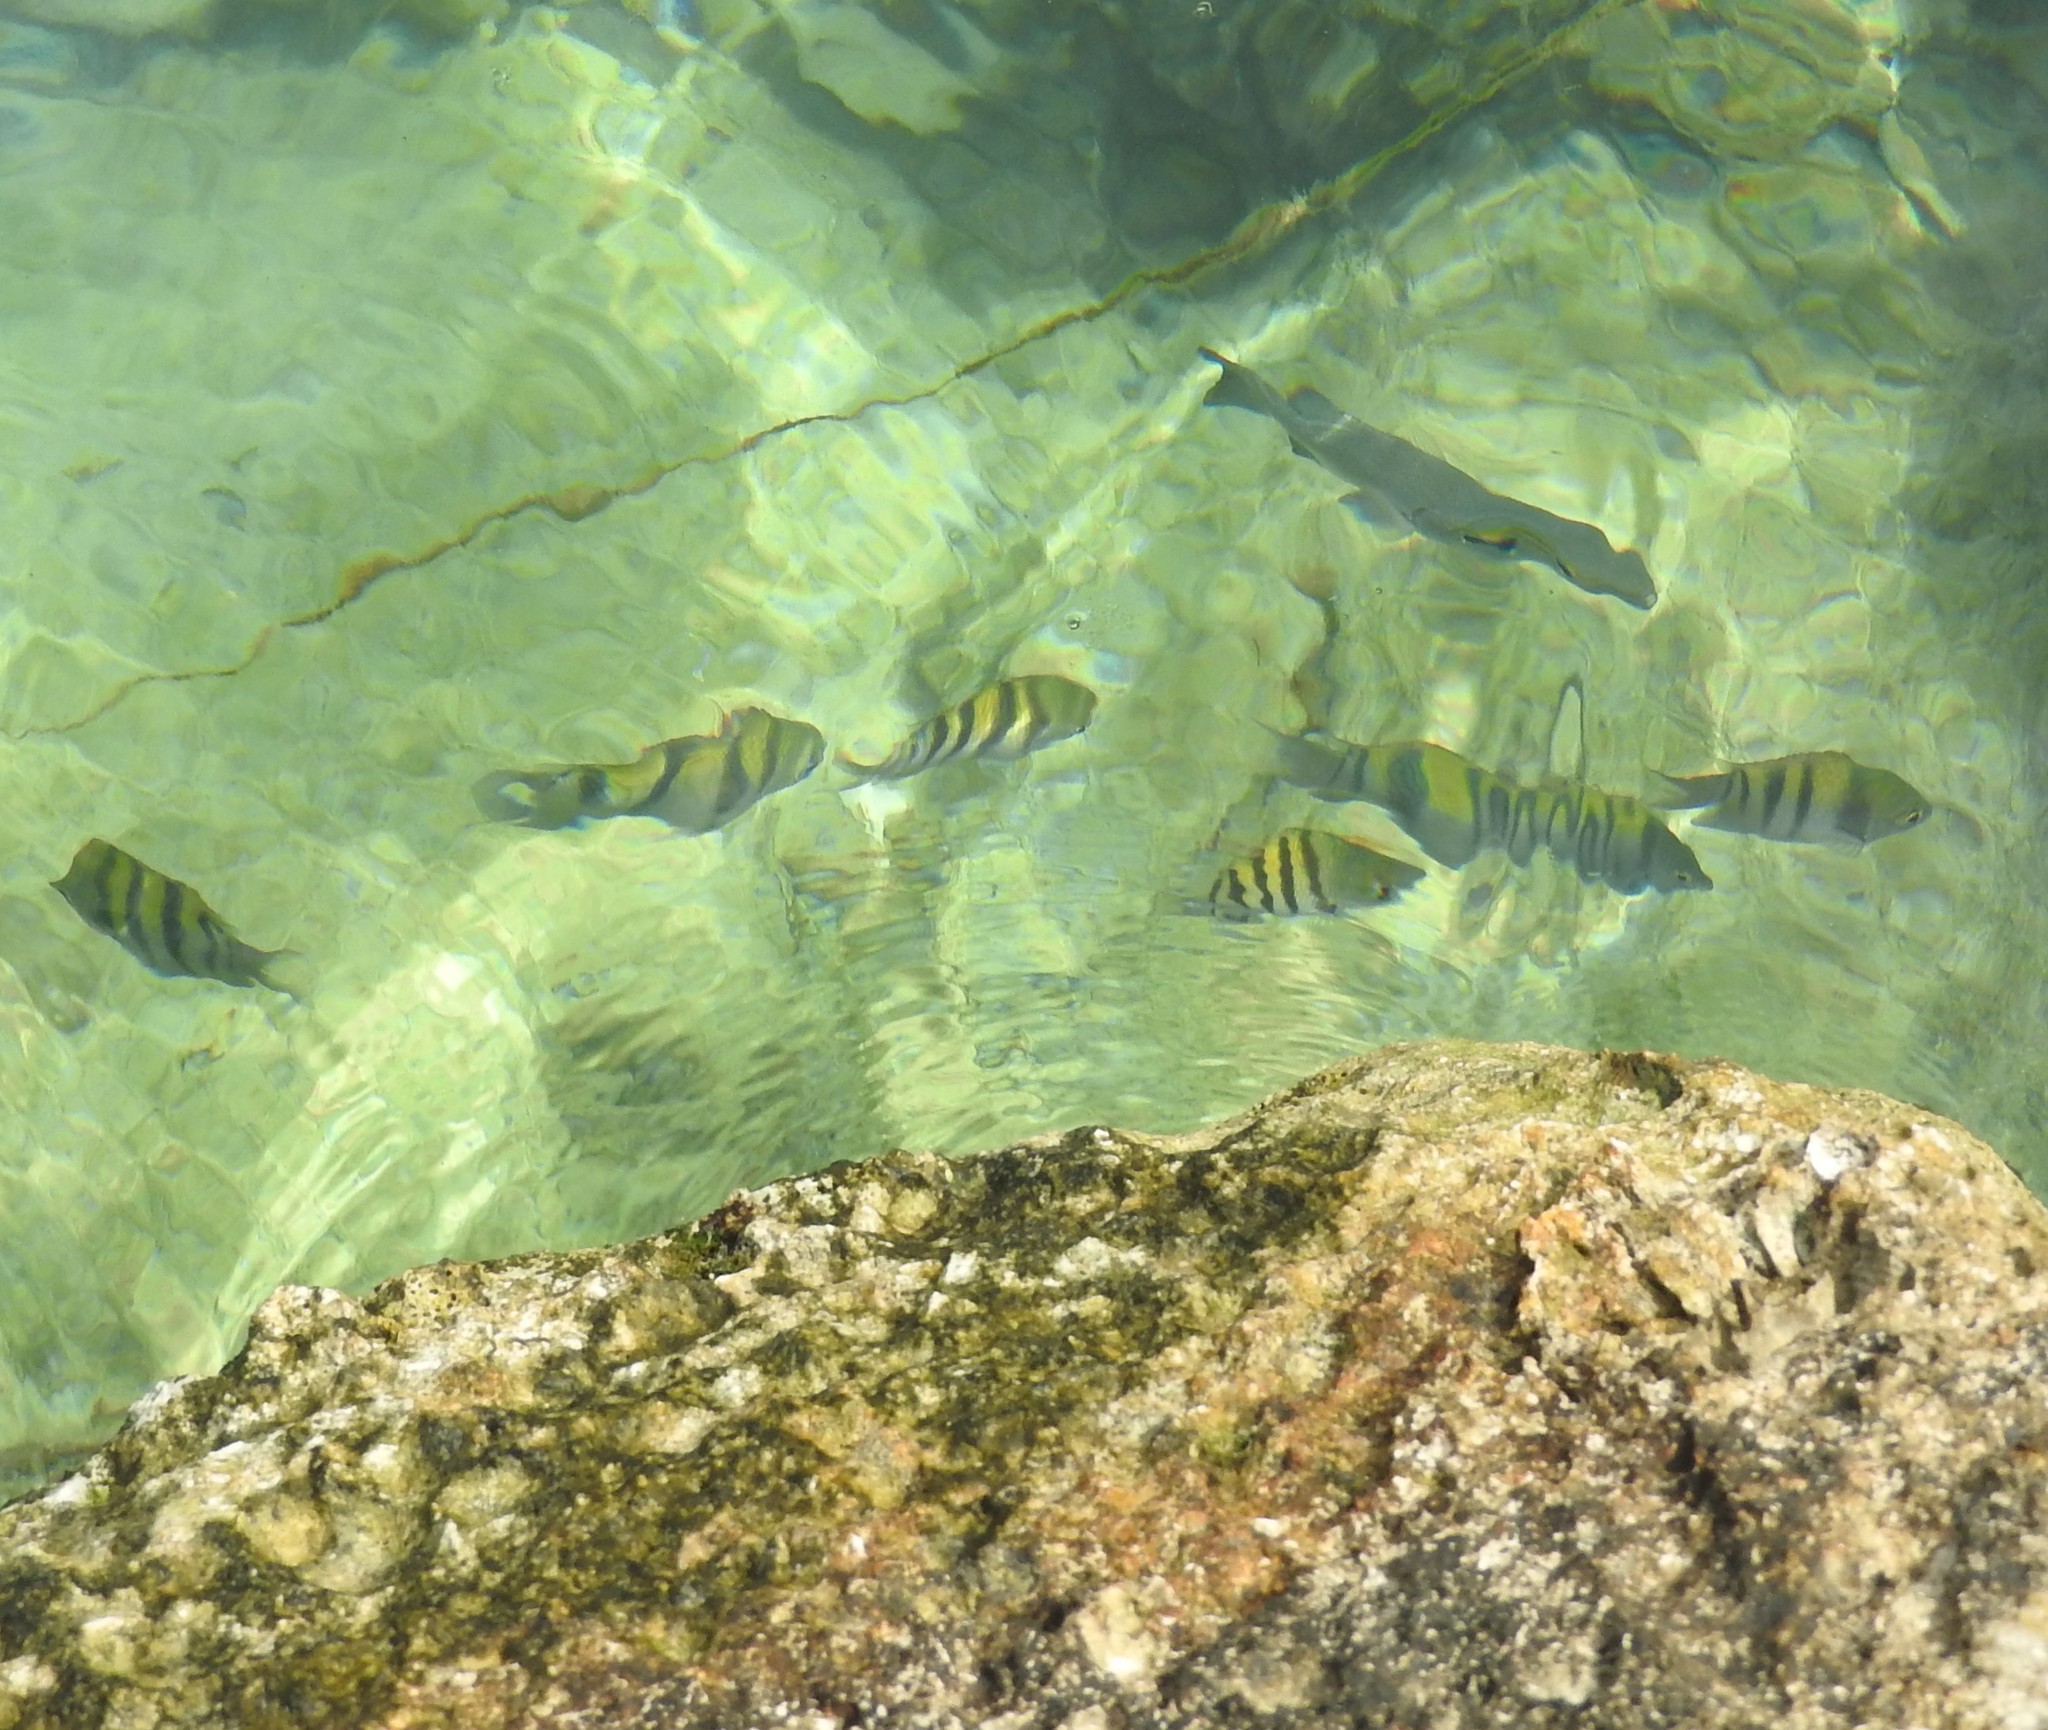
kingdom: Animalia
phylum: Chordata
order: Perciformes
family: Pomacentridae
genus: Abudefduf
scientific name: Abudefduf saxatilis
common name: Sergeant major
